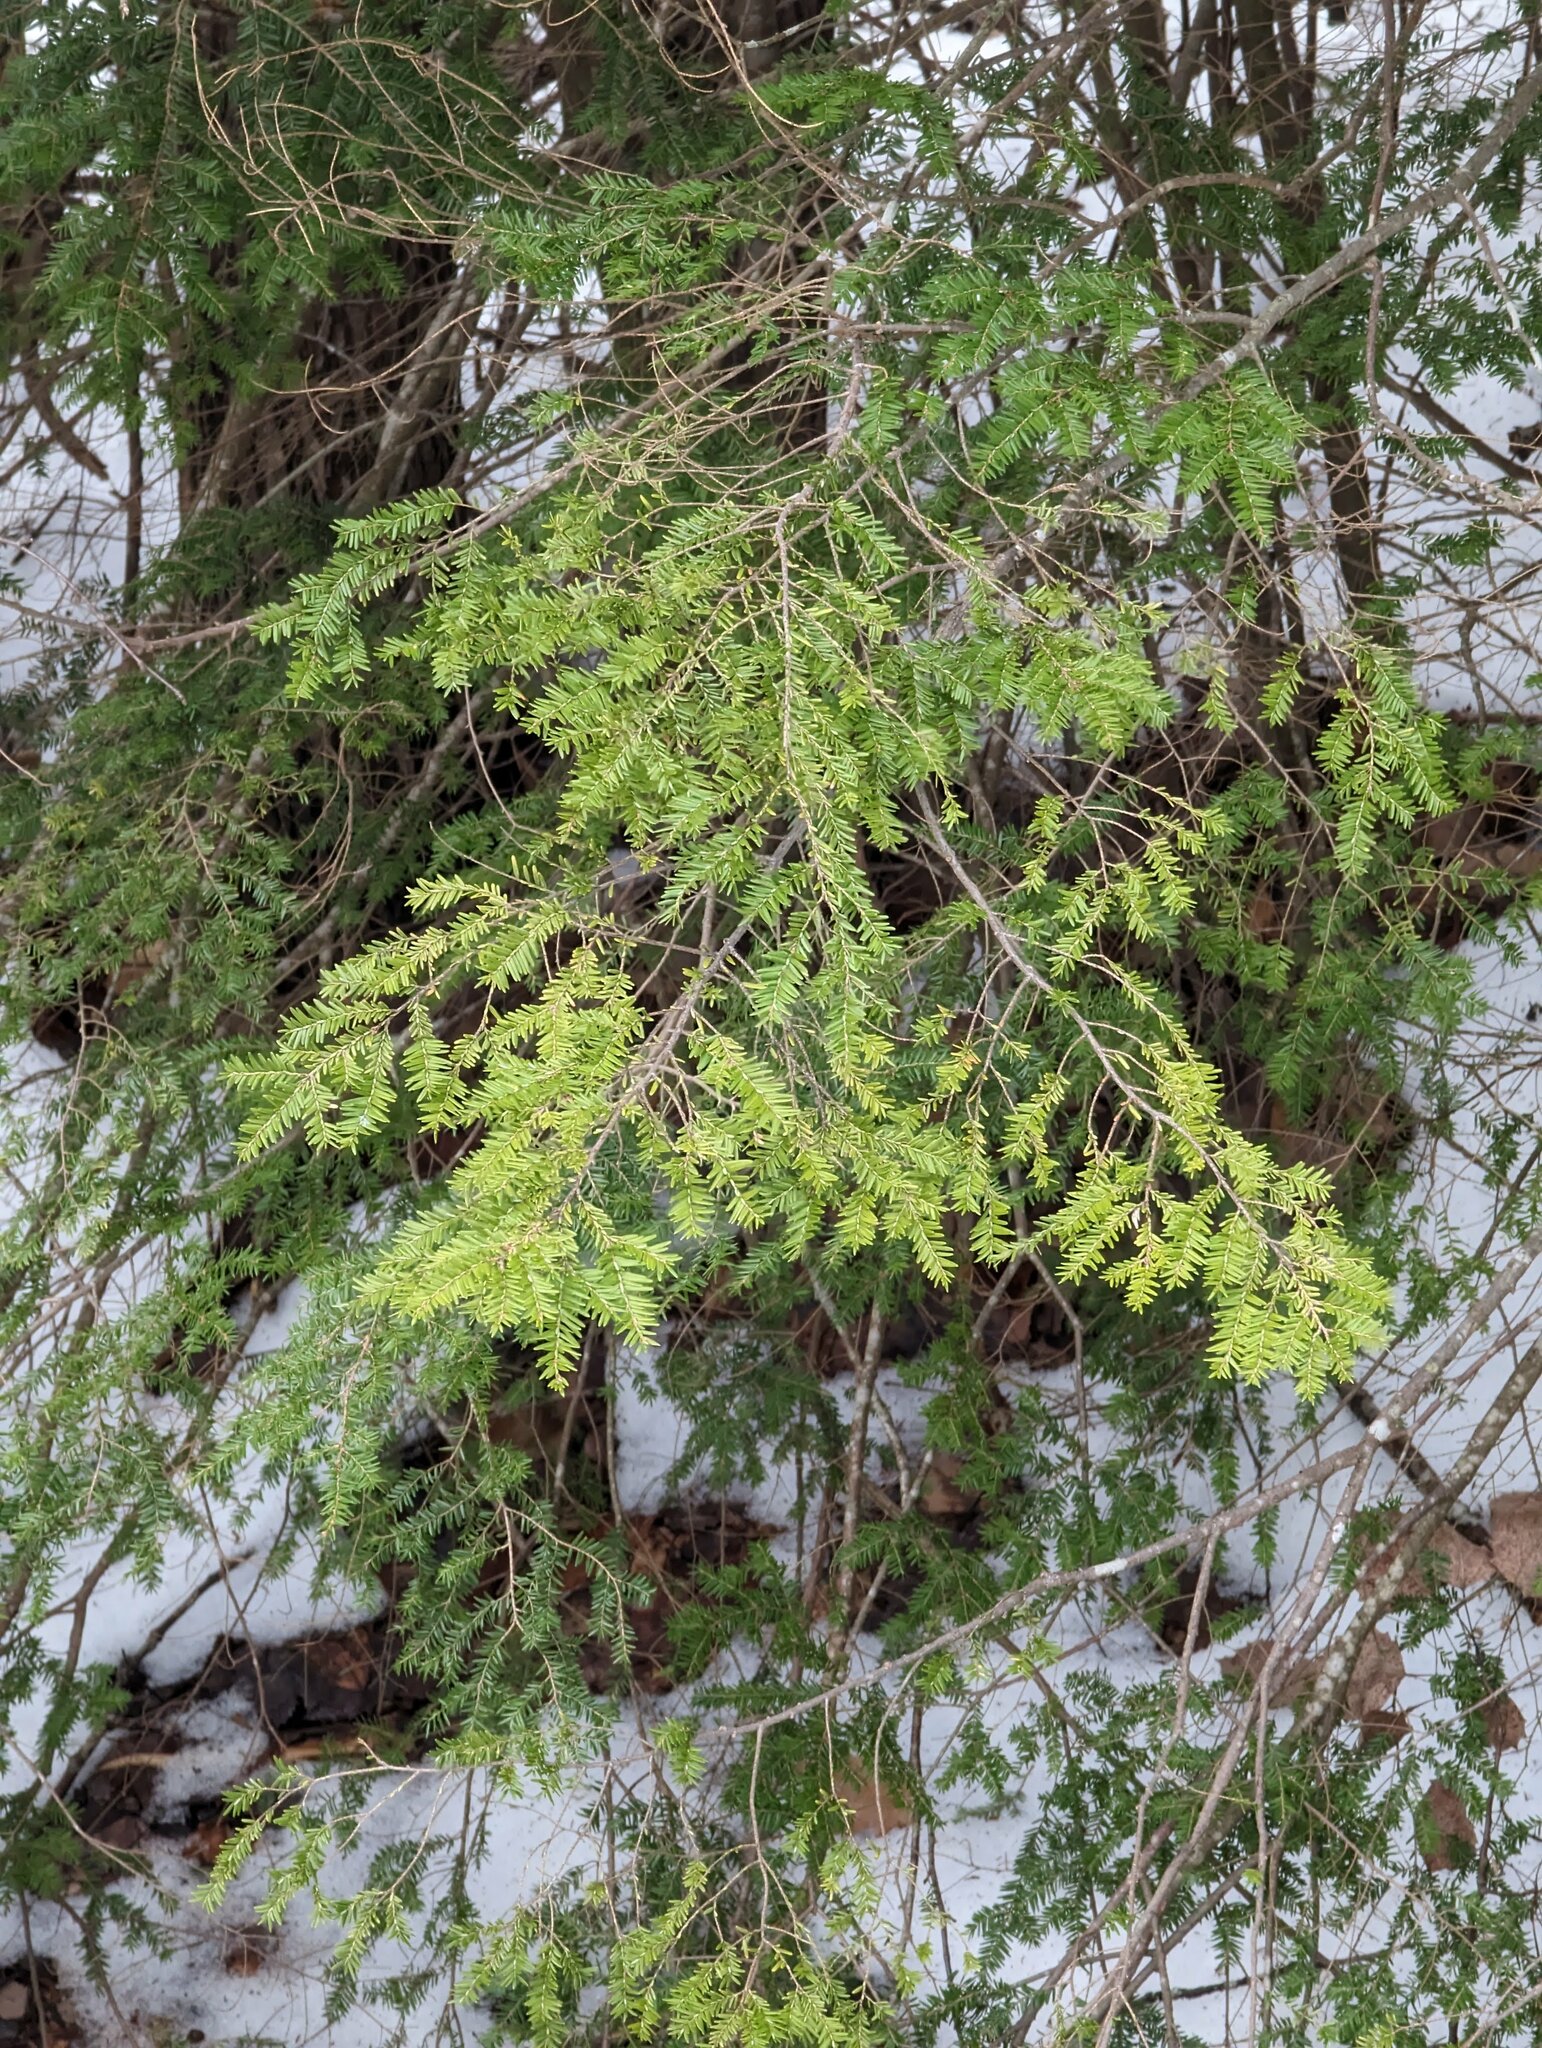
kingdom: Plantae
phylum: Tracheophyta
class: Pinopsida
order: Pinales
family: Pinaceae
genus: Tsuga
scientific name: Tsuga canadensis
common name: Eastern hemlock
